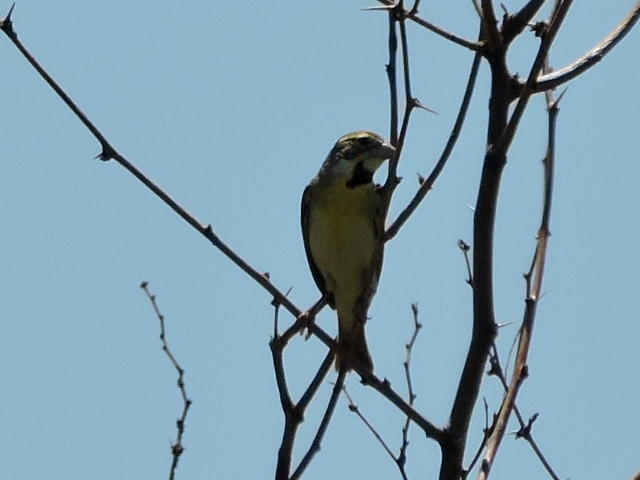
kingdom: Animalia
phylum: Chordata
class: Aves
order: Passeriformes
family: Cardinalidae
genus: Spiza
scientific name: Spiza americana
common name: Dickcissel
